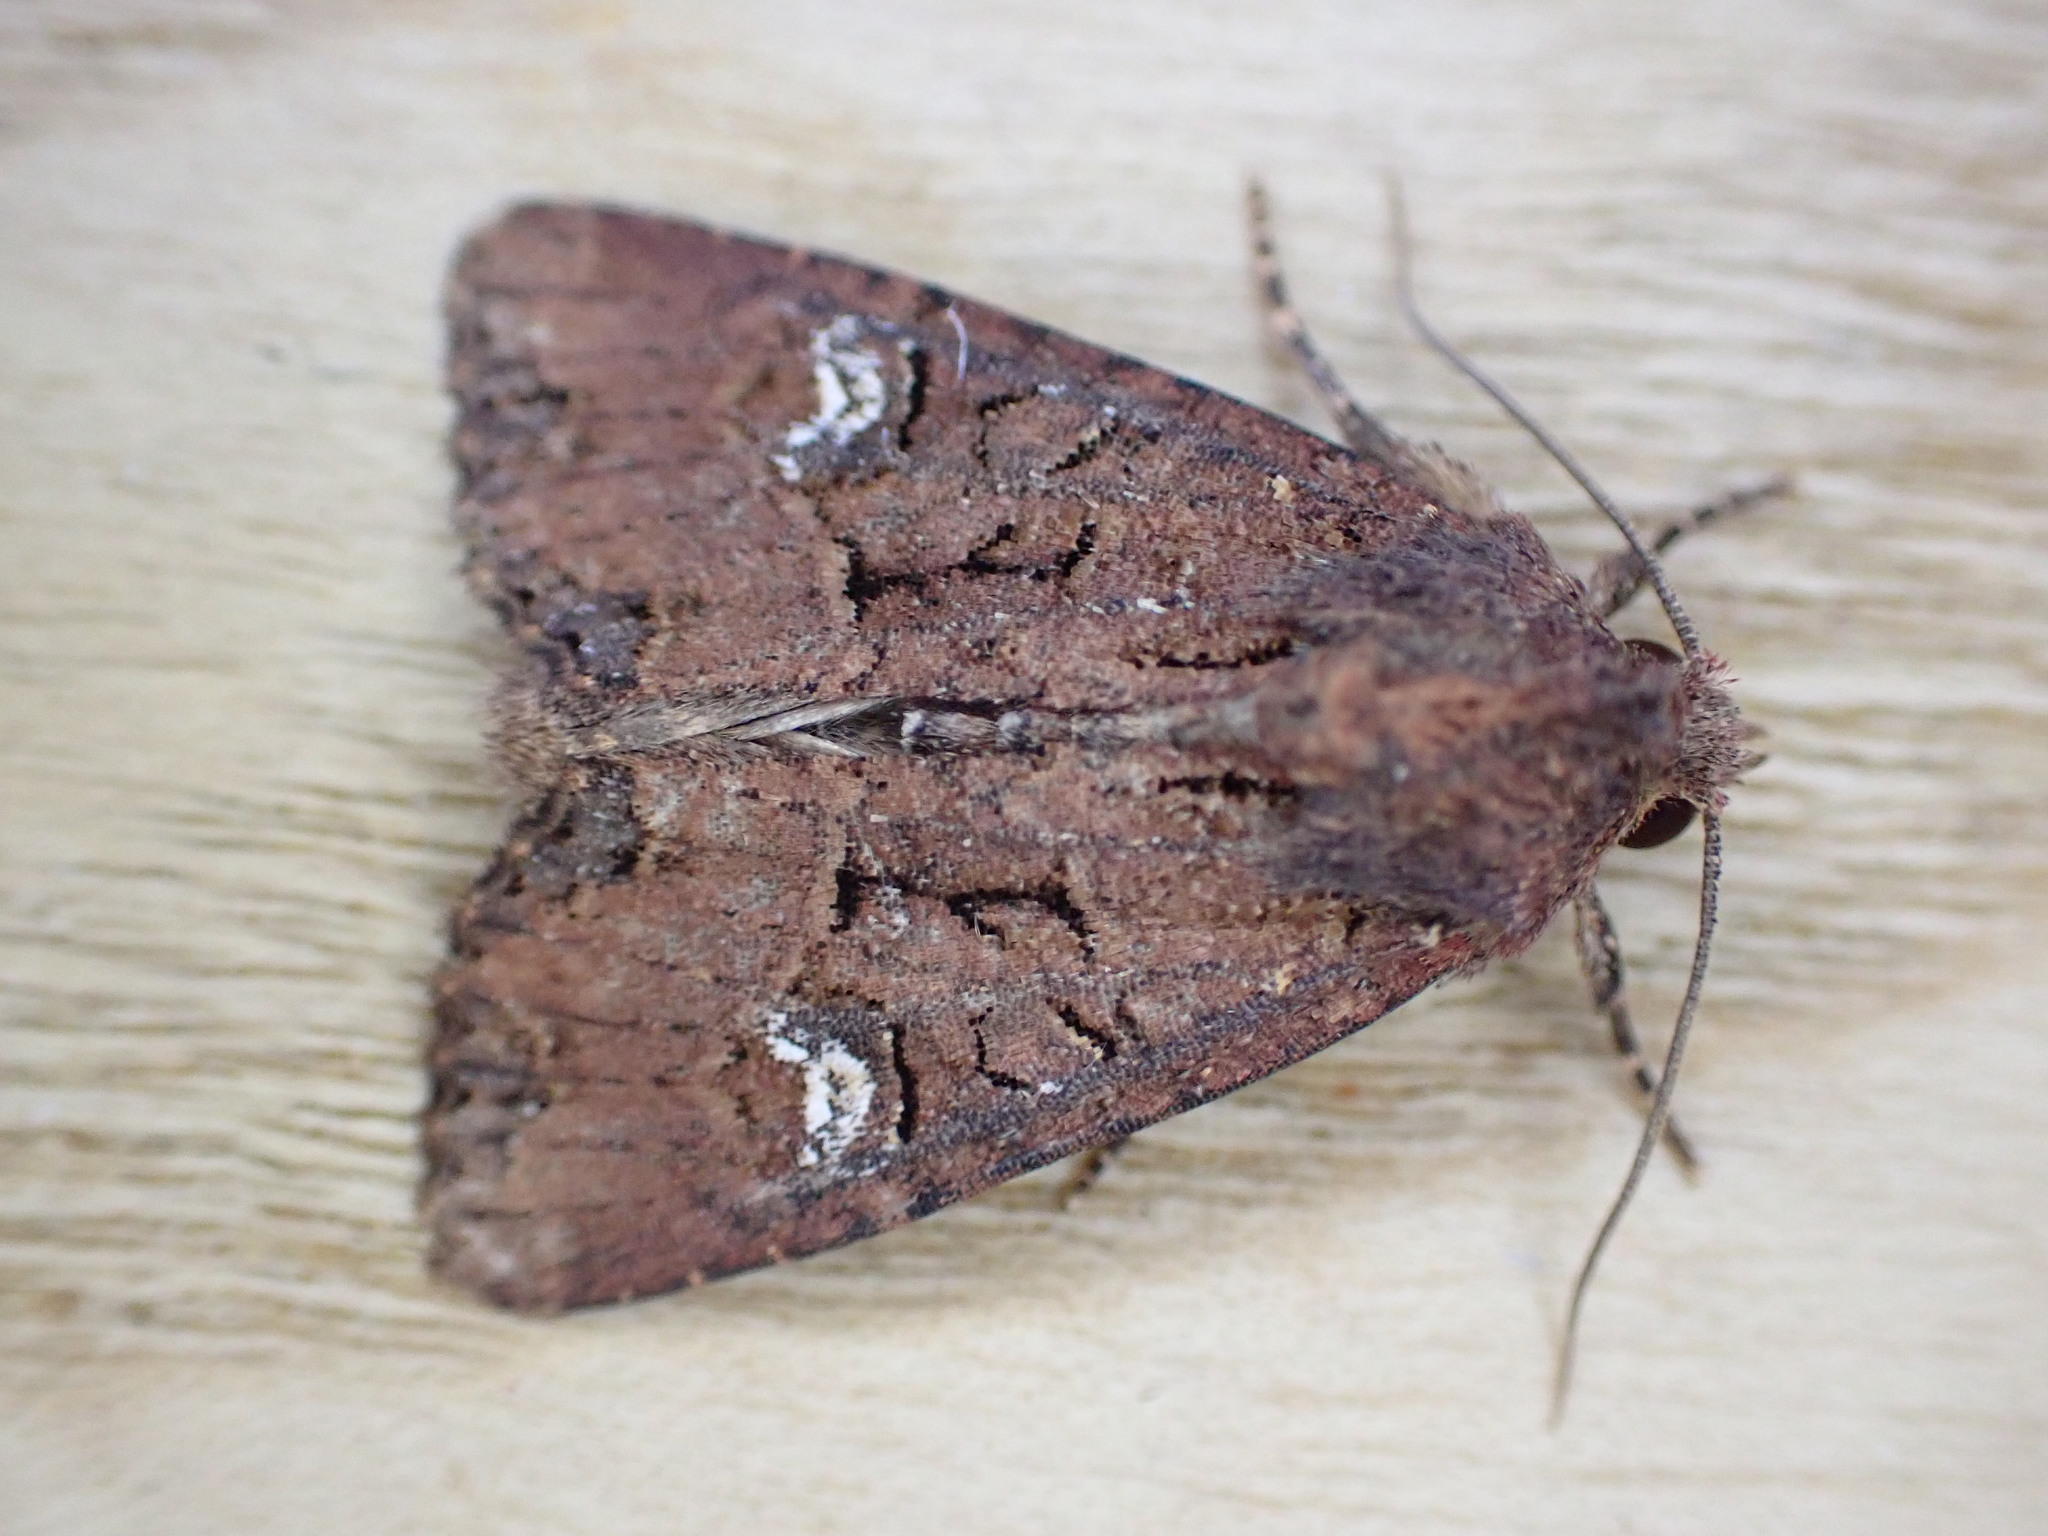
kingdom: Animalia
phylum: Arthropoda
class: Insecta
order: Lepidoptera
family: Noctuidae
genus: Mesapamea
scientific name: Mesapamea
